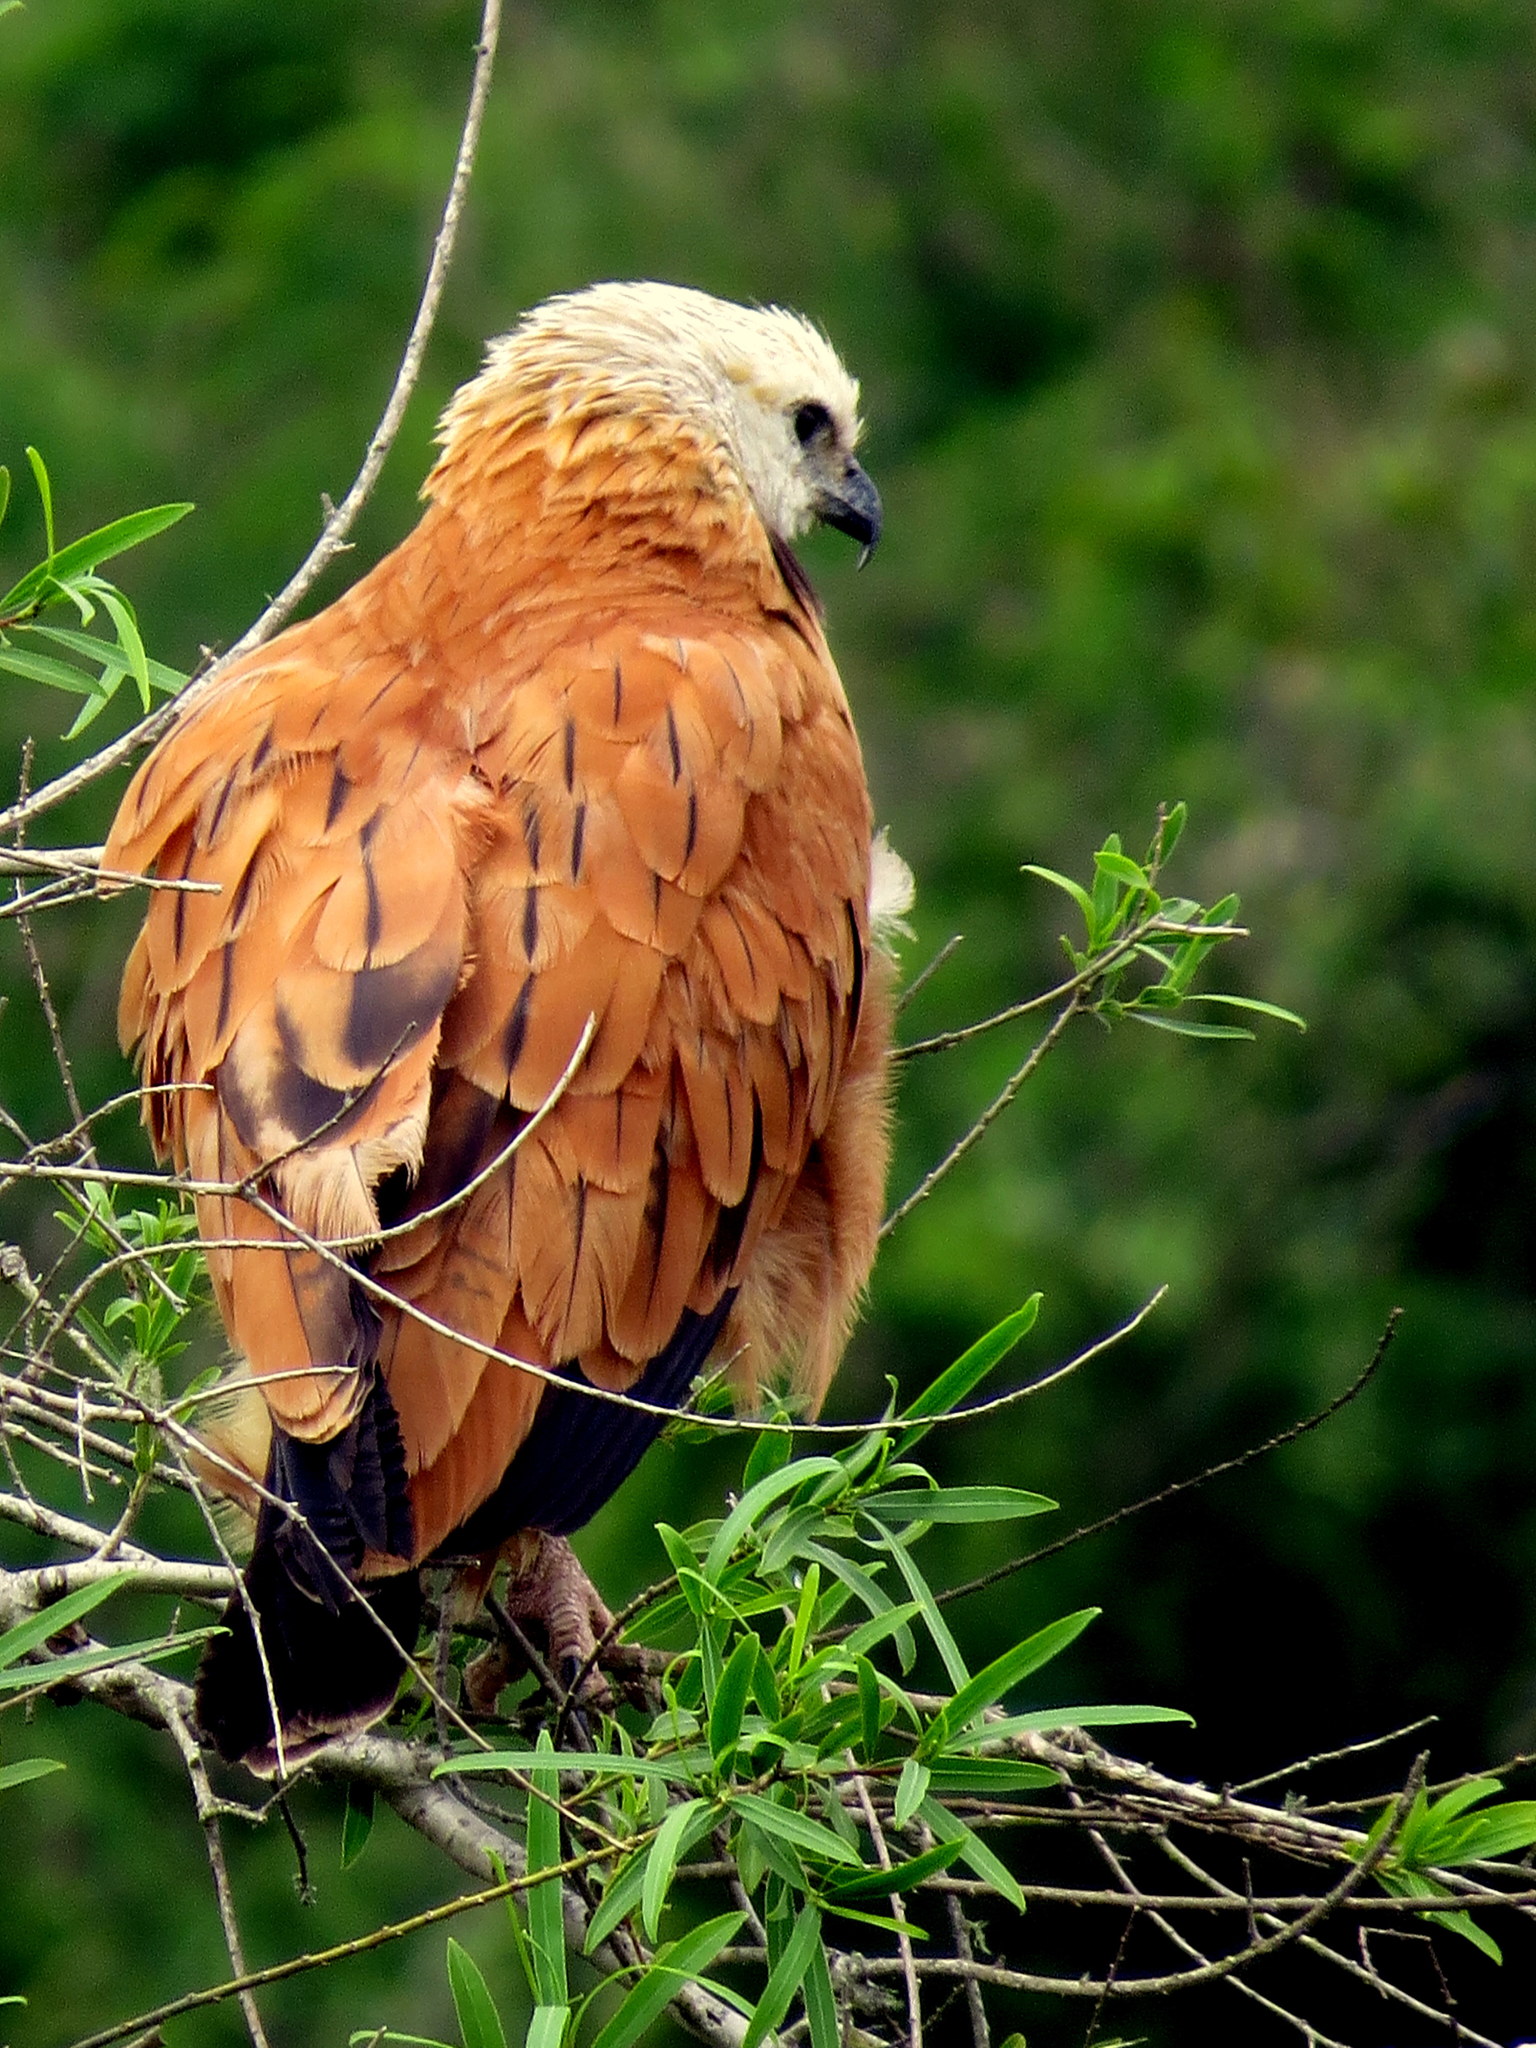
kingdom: Animalia
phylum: Chordata
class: Aves
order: Accipitriformes
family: Accipitridae
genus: Busarellus
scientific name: Busarellus nigricollis
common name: Black-collared hawk
